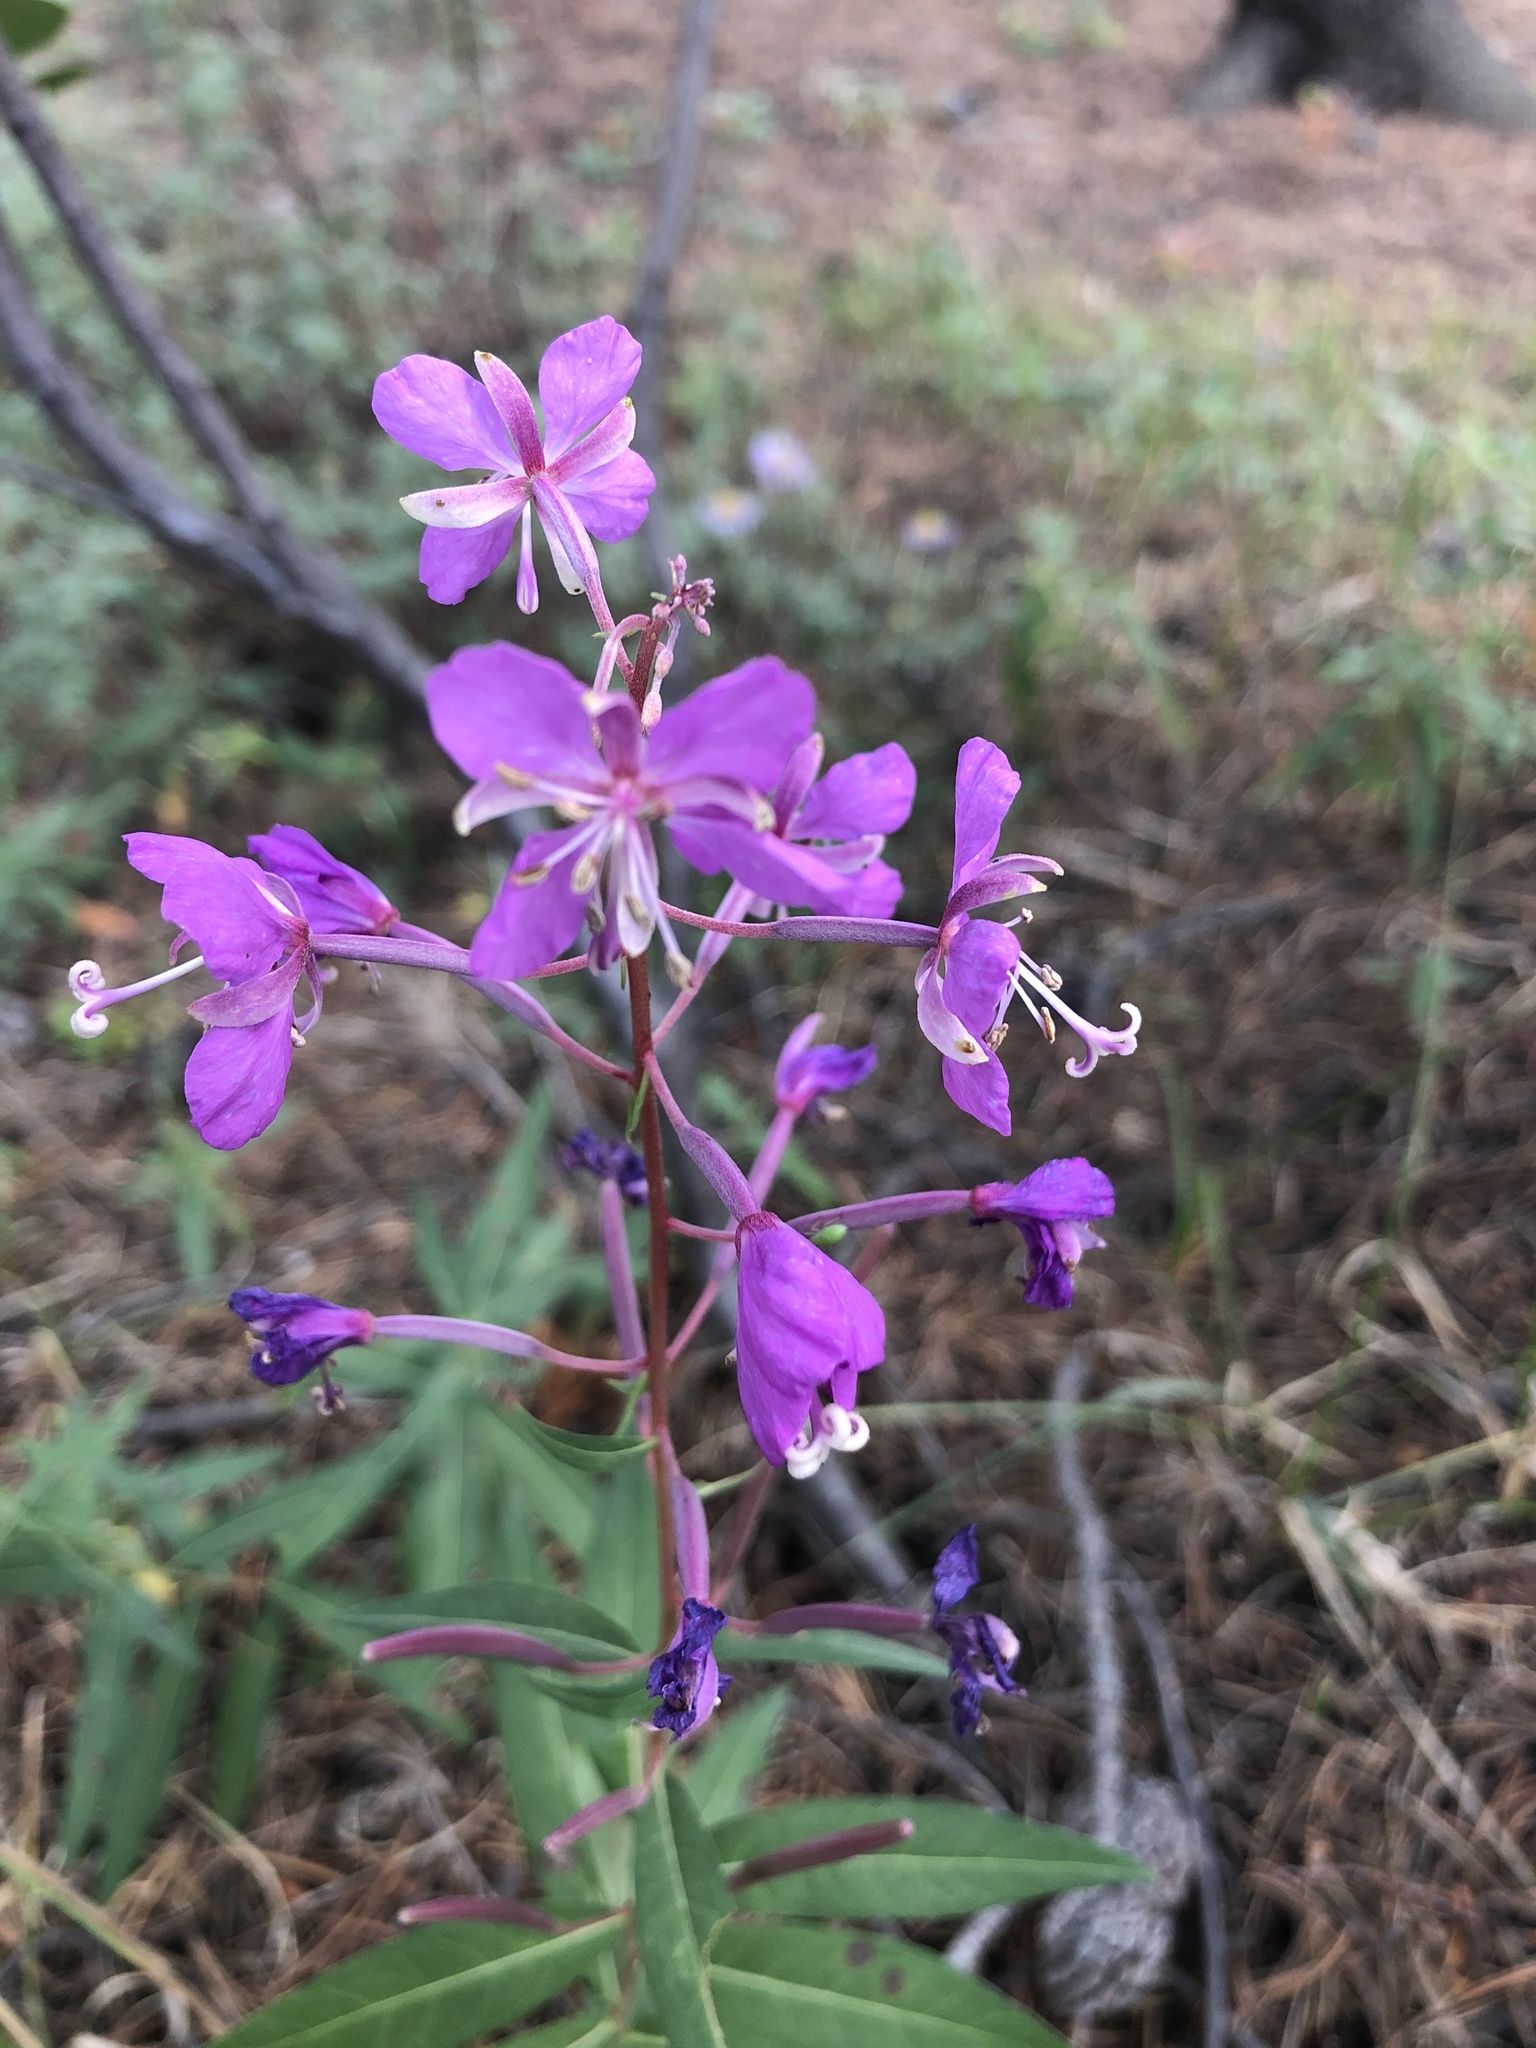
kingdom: Plantae
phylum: Tracheophyta
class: Magnoliopsida
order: Myrtales
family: Onagraceae
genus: Chamaenerion
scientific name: Chamaenerion angustifolium
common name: Fireweed
